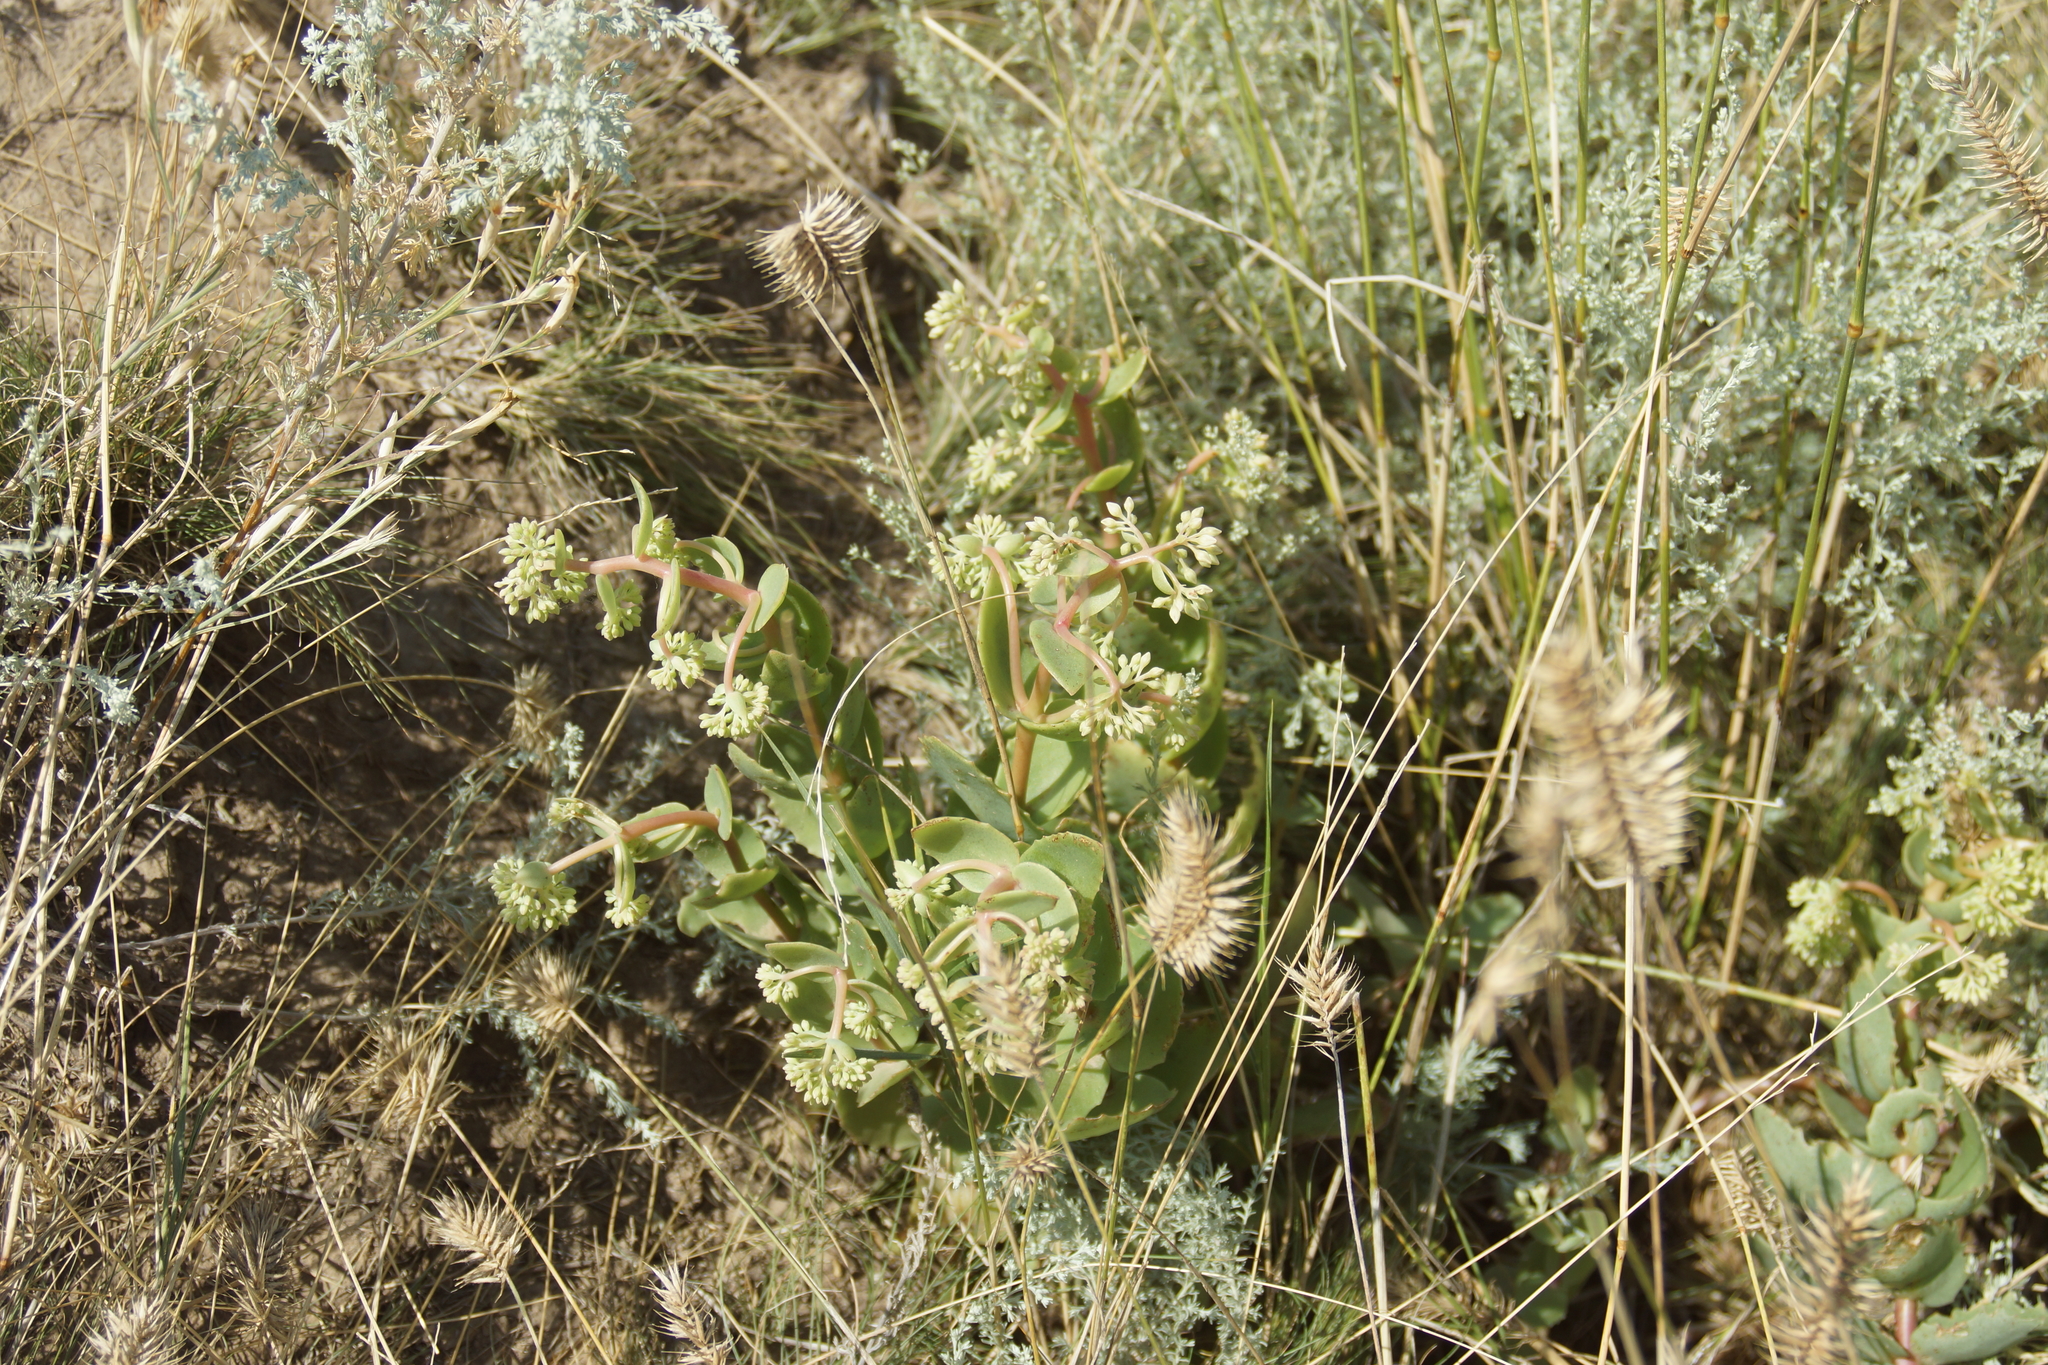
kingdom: Plantae
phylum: Tracheophyta
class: Magnoliopsida
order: Saxifragales
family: Crassulaceae
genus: Hylotelephium
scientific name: Hylotelephium maximum
